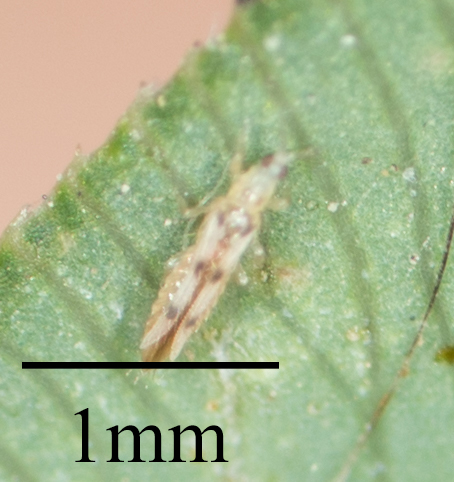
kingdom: Animalia
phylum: Arthropoda
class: Insecta
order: Thysanoptera
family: Thripidae
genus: Scolothrips
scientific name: Scolothrips sexmaculatus
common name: Common thrip
